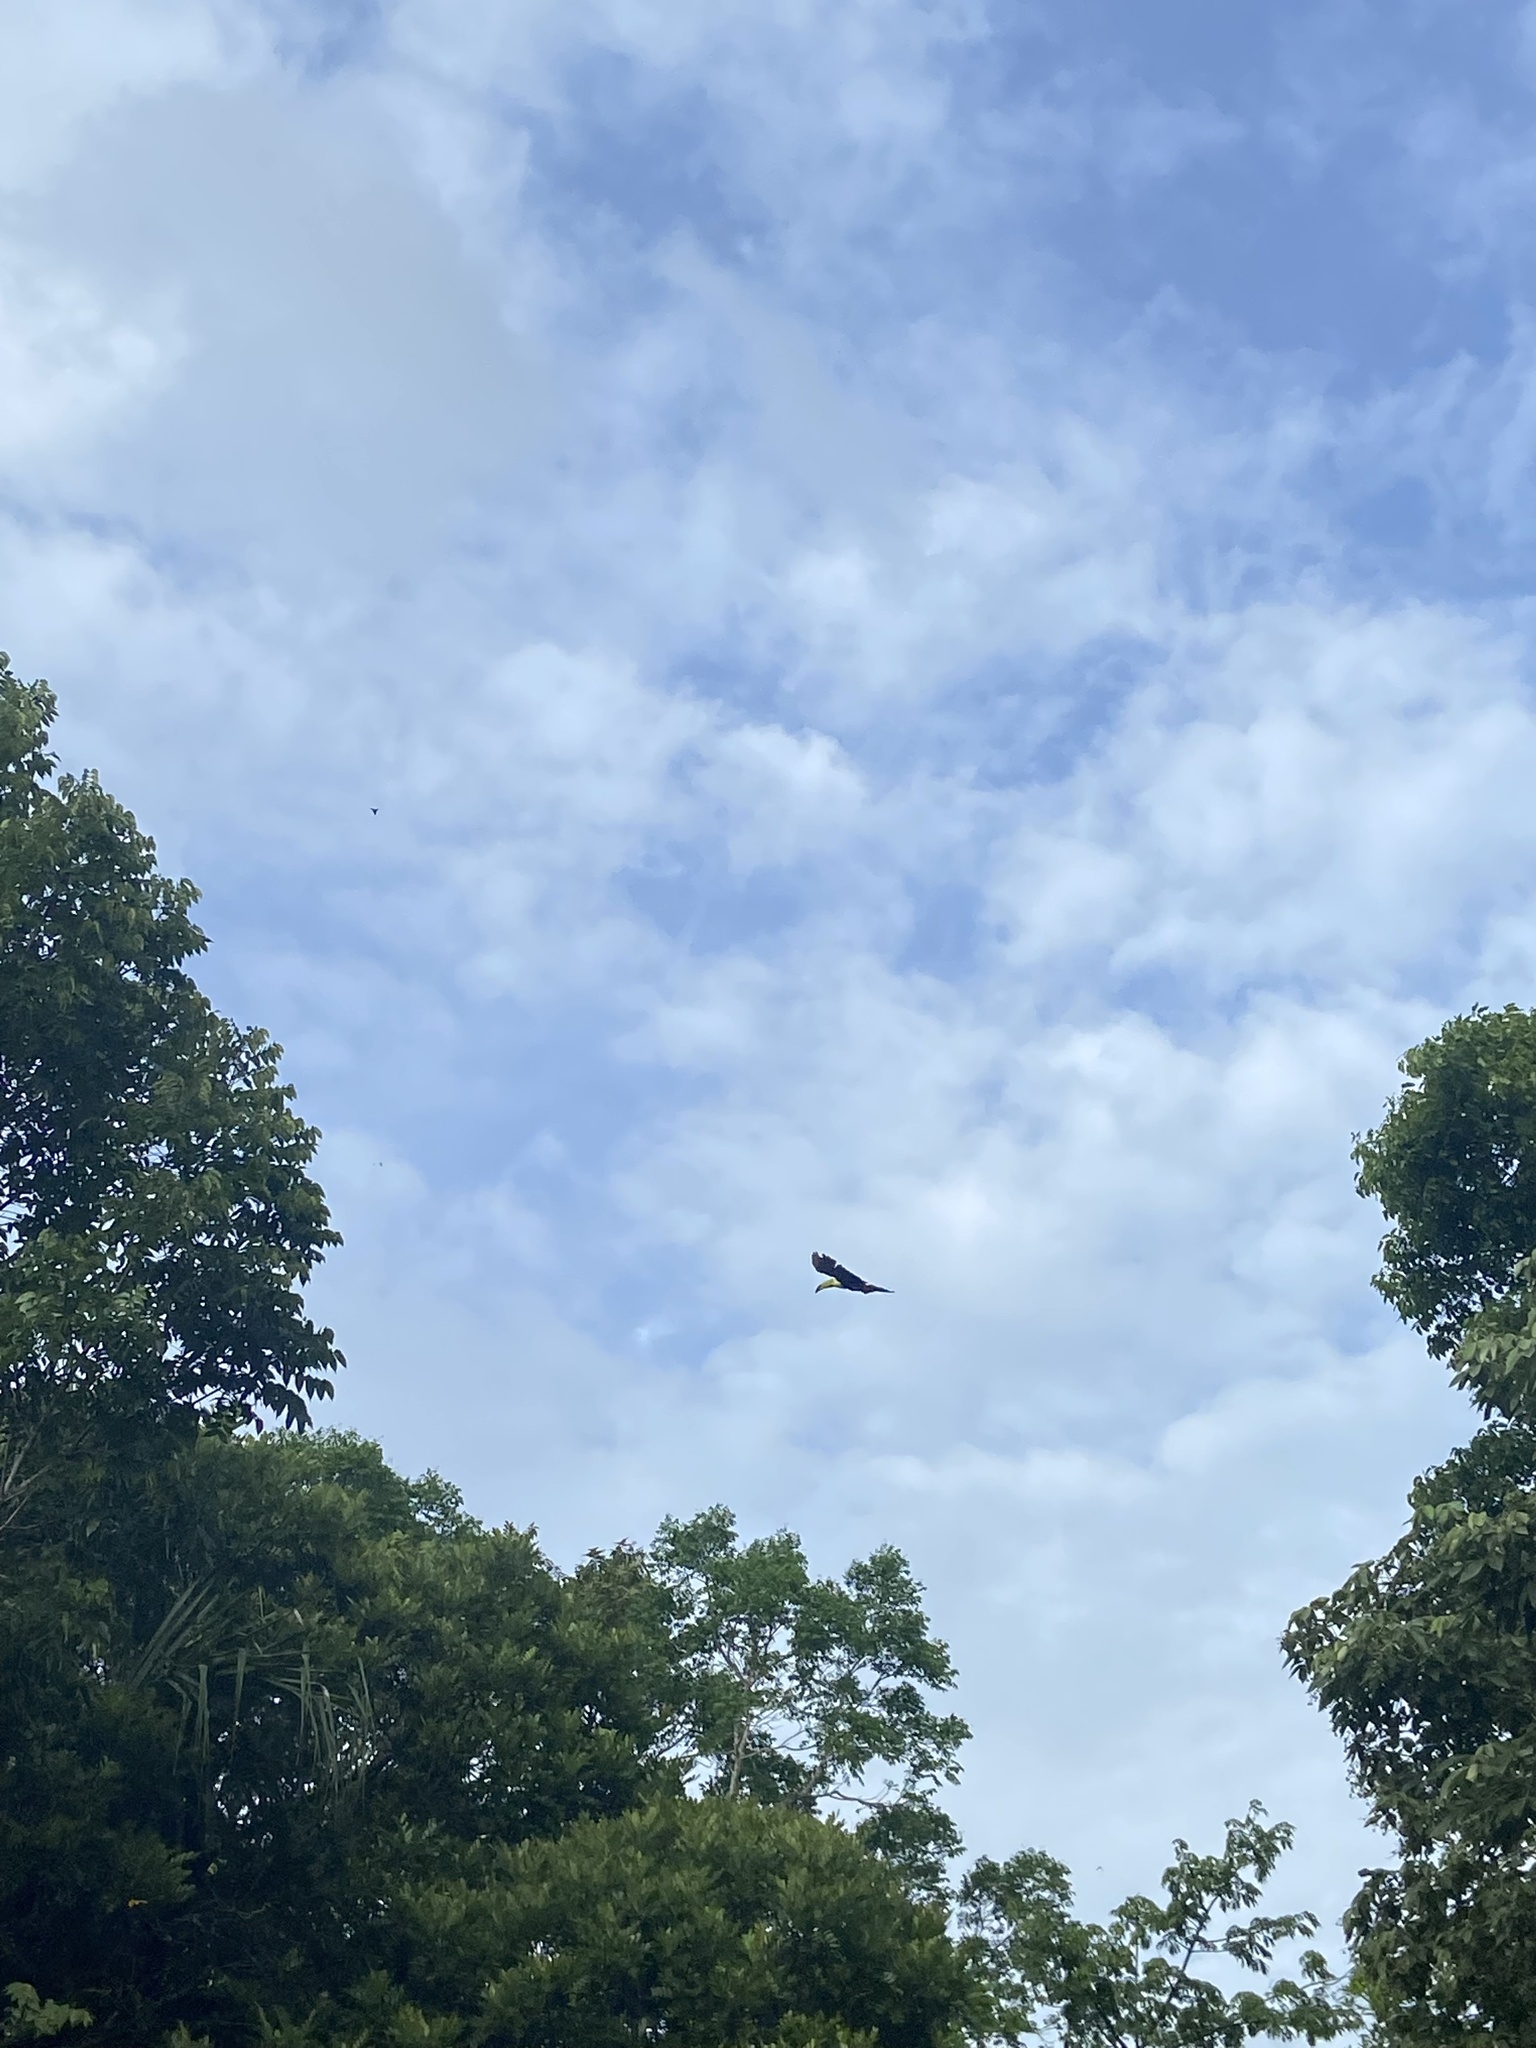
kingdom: Animalia
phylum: Chordata
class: Aves
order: Piciformes
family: Ramphastidae
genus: Ramphastos
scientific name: Ramphastos sulfuratus
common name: Keel-billed toucan
